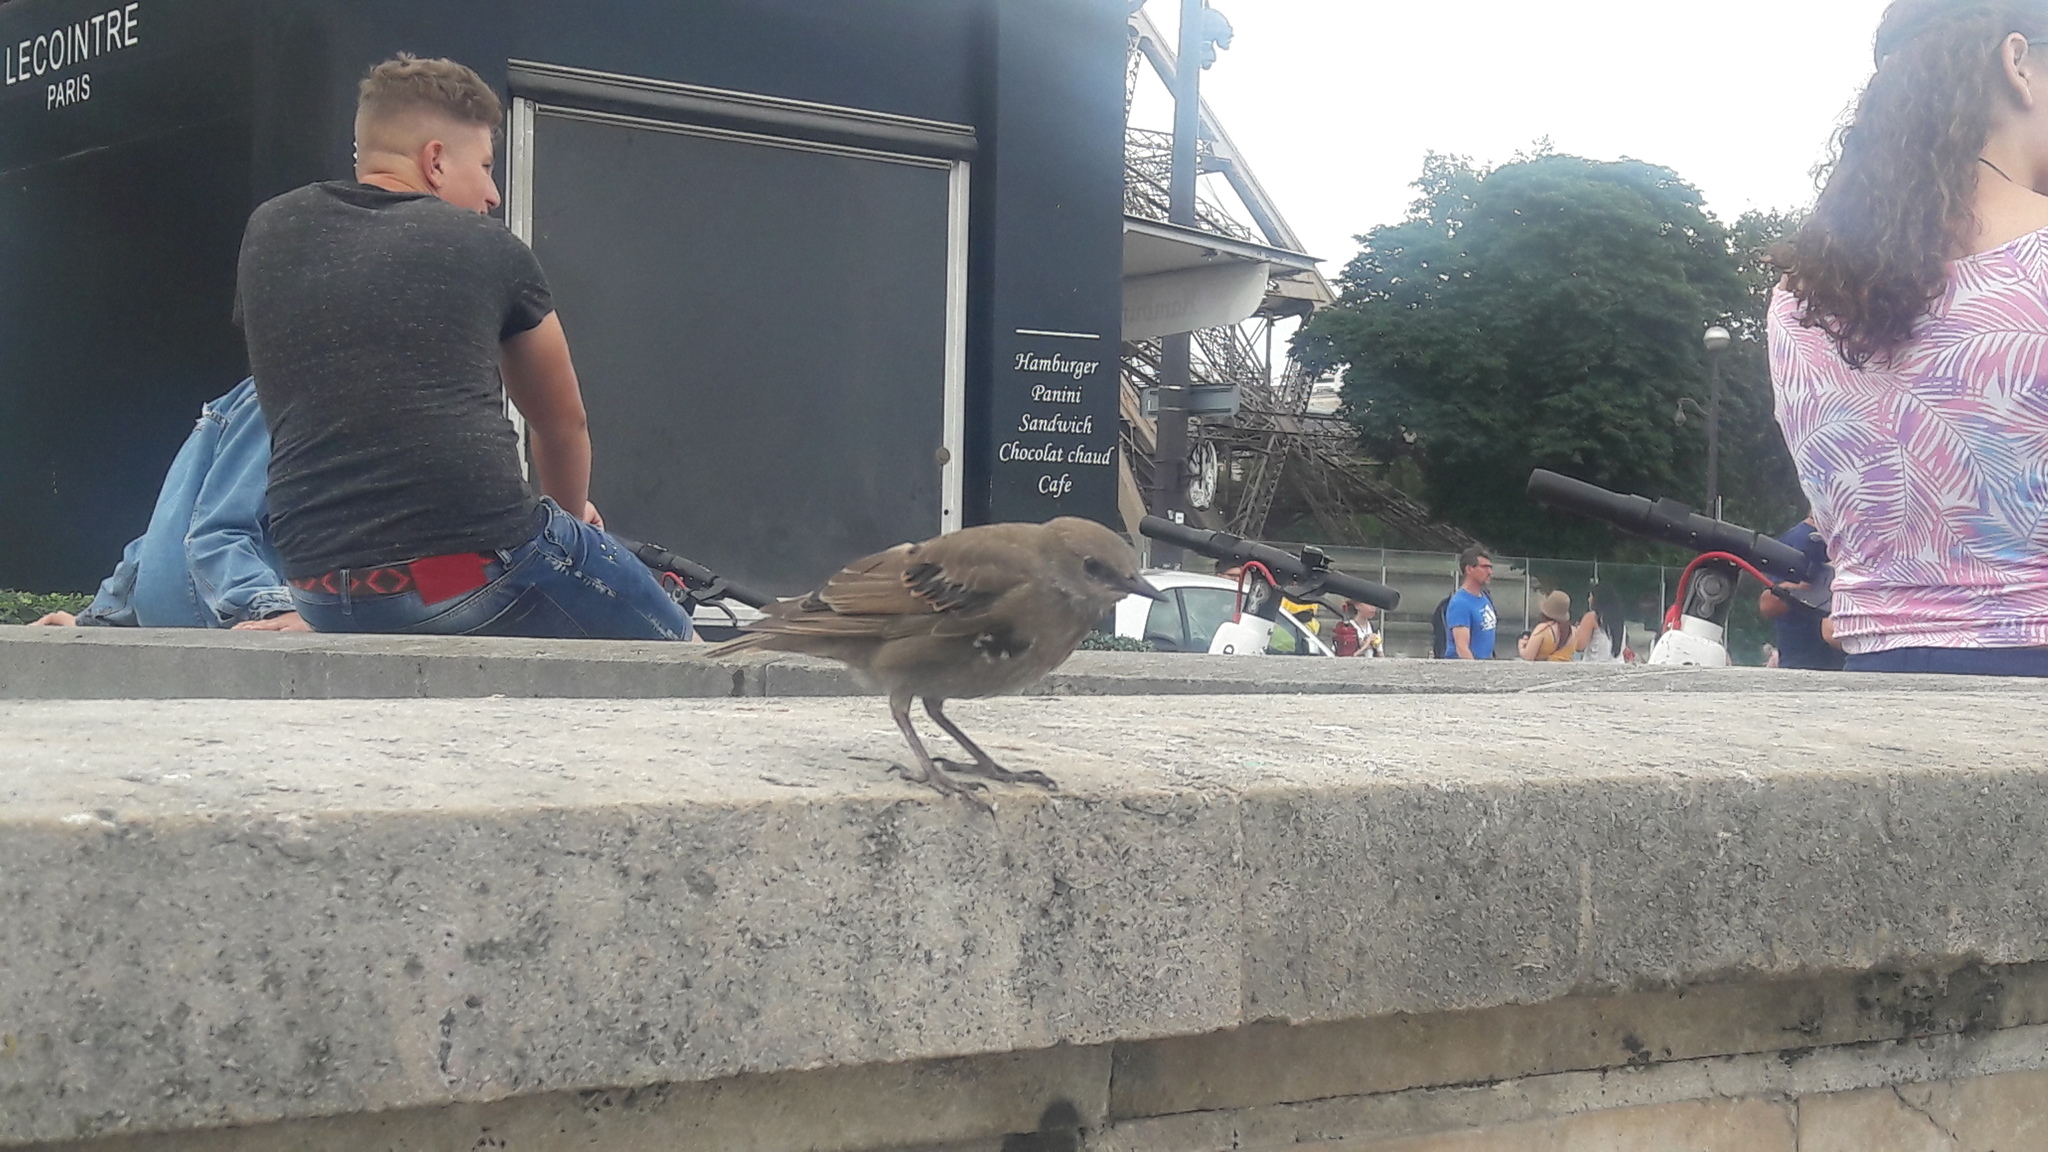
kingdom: Animalia
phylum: Chordata
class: Aves
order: Passeriformes
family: Sturnidae
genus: Sturnus
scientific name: Sturnus vulgaris
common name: Common starling
